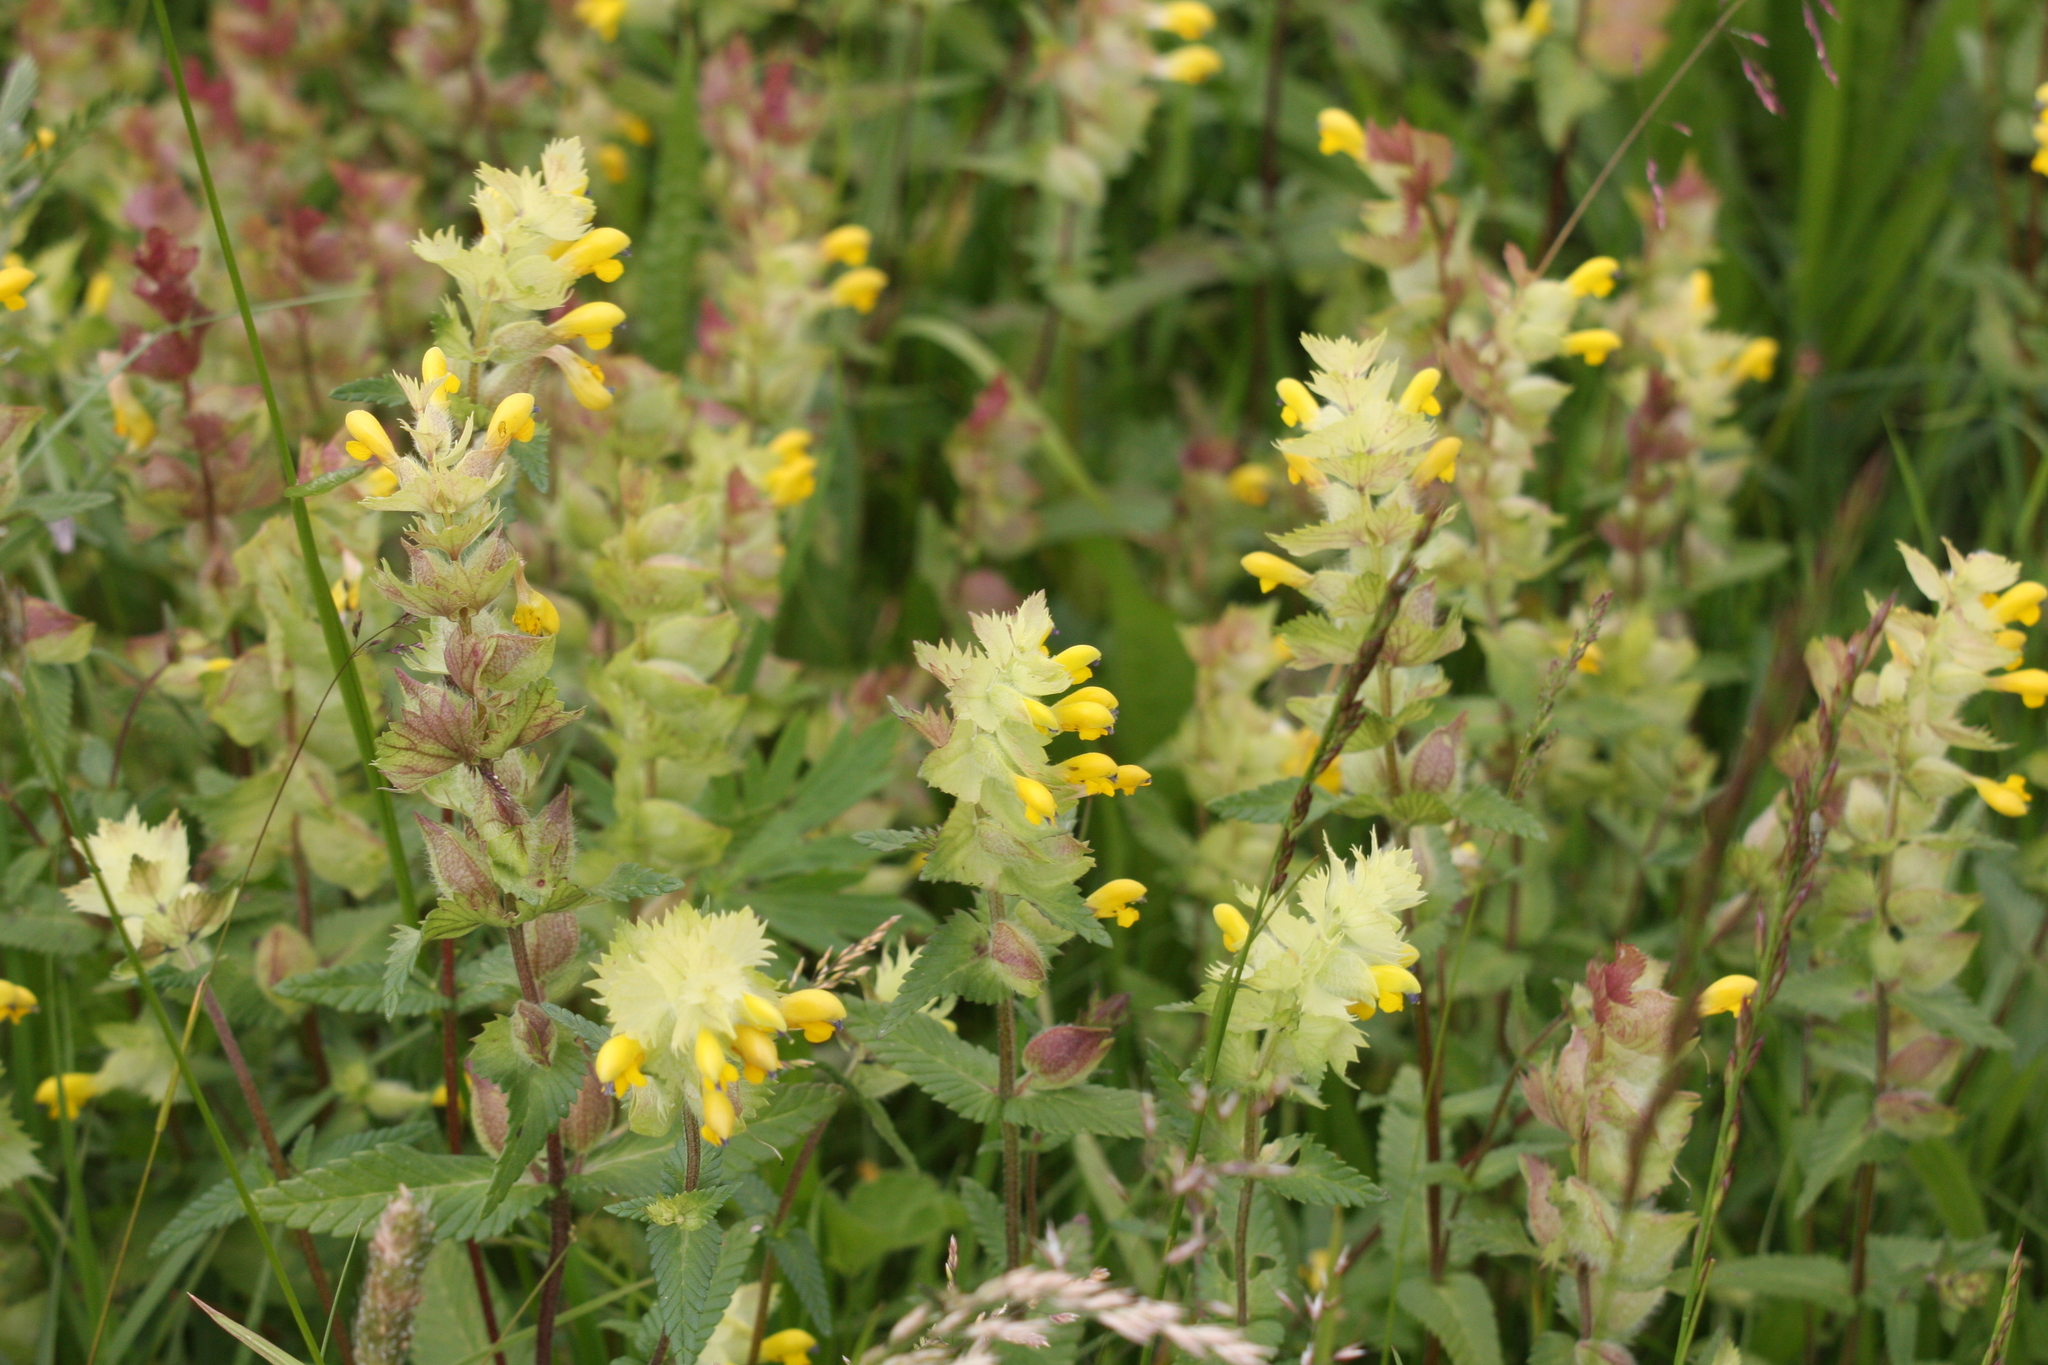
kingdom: Plantae
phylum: Tracheophyta
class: Magnoliopsida
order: Lamiales
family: Orobanchaceae
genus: Rhinanthus
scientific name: Rhinanthus alectorolophus
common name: Greater yellow-rattle
